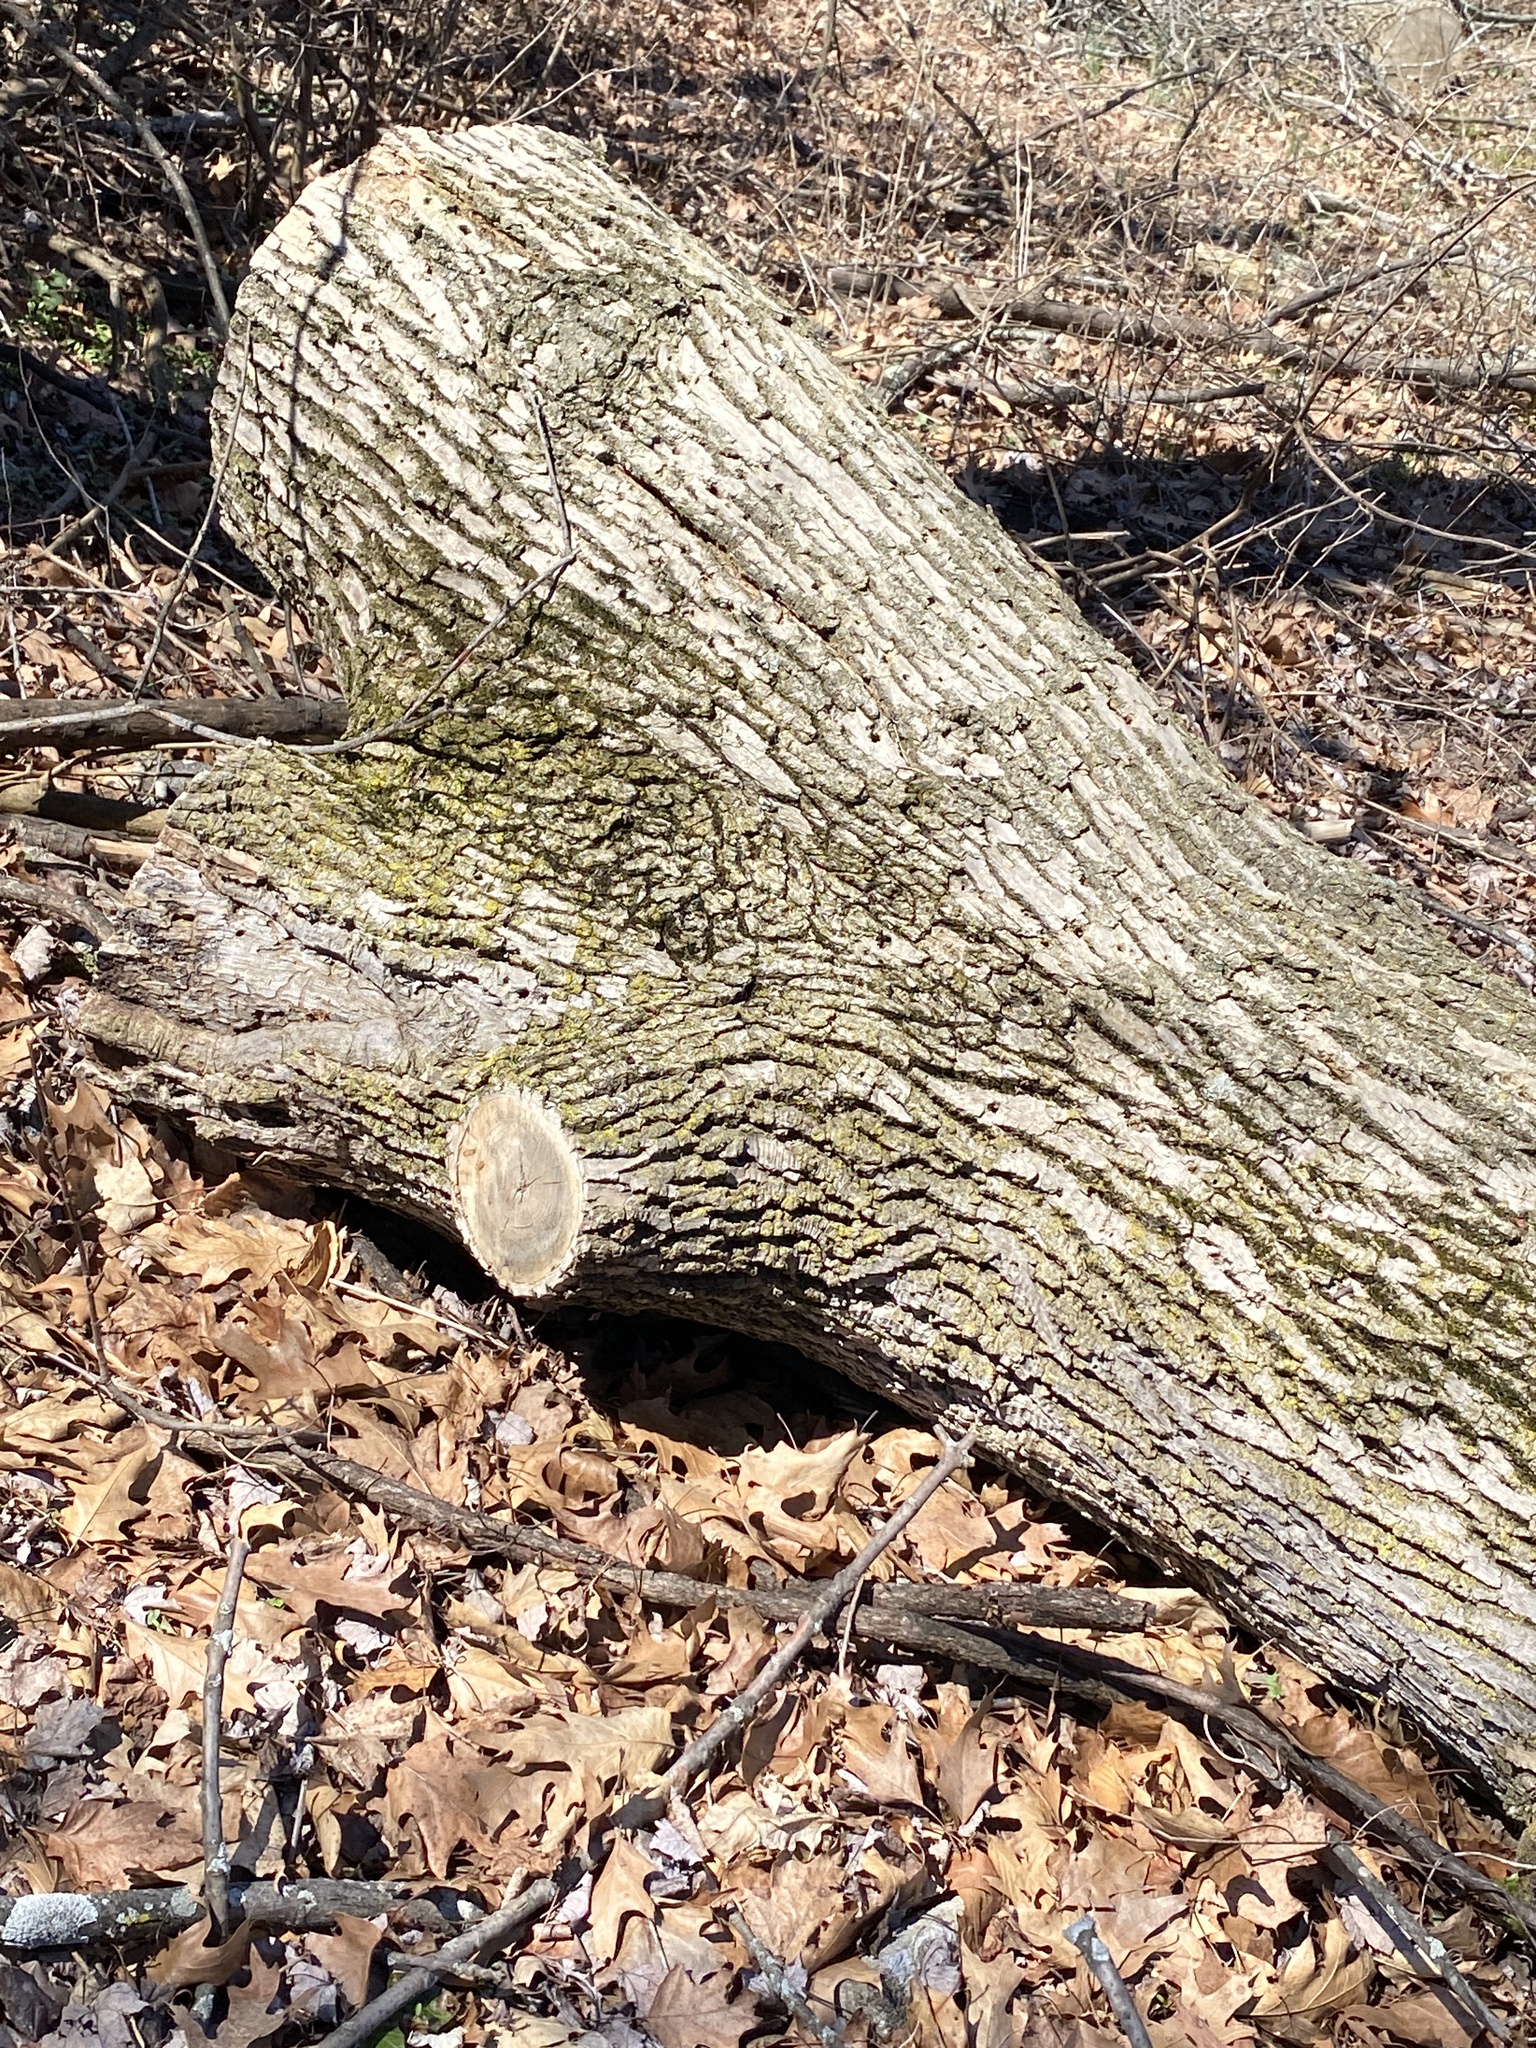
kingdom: Animalia
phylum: Arthropoda
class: Insecta
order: Coleoptera
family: Buprestidae
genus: Agrilus
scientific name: Agrilus planipennis
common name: Emerald ash borer
